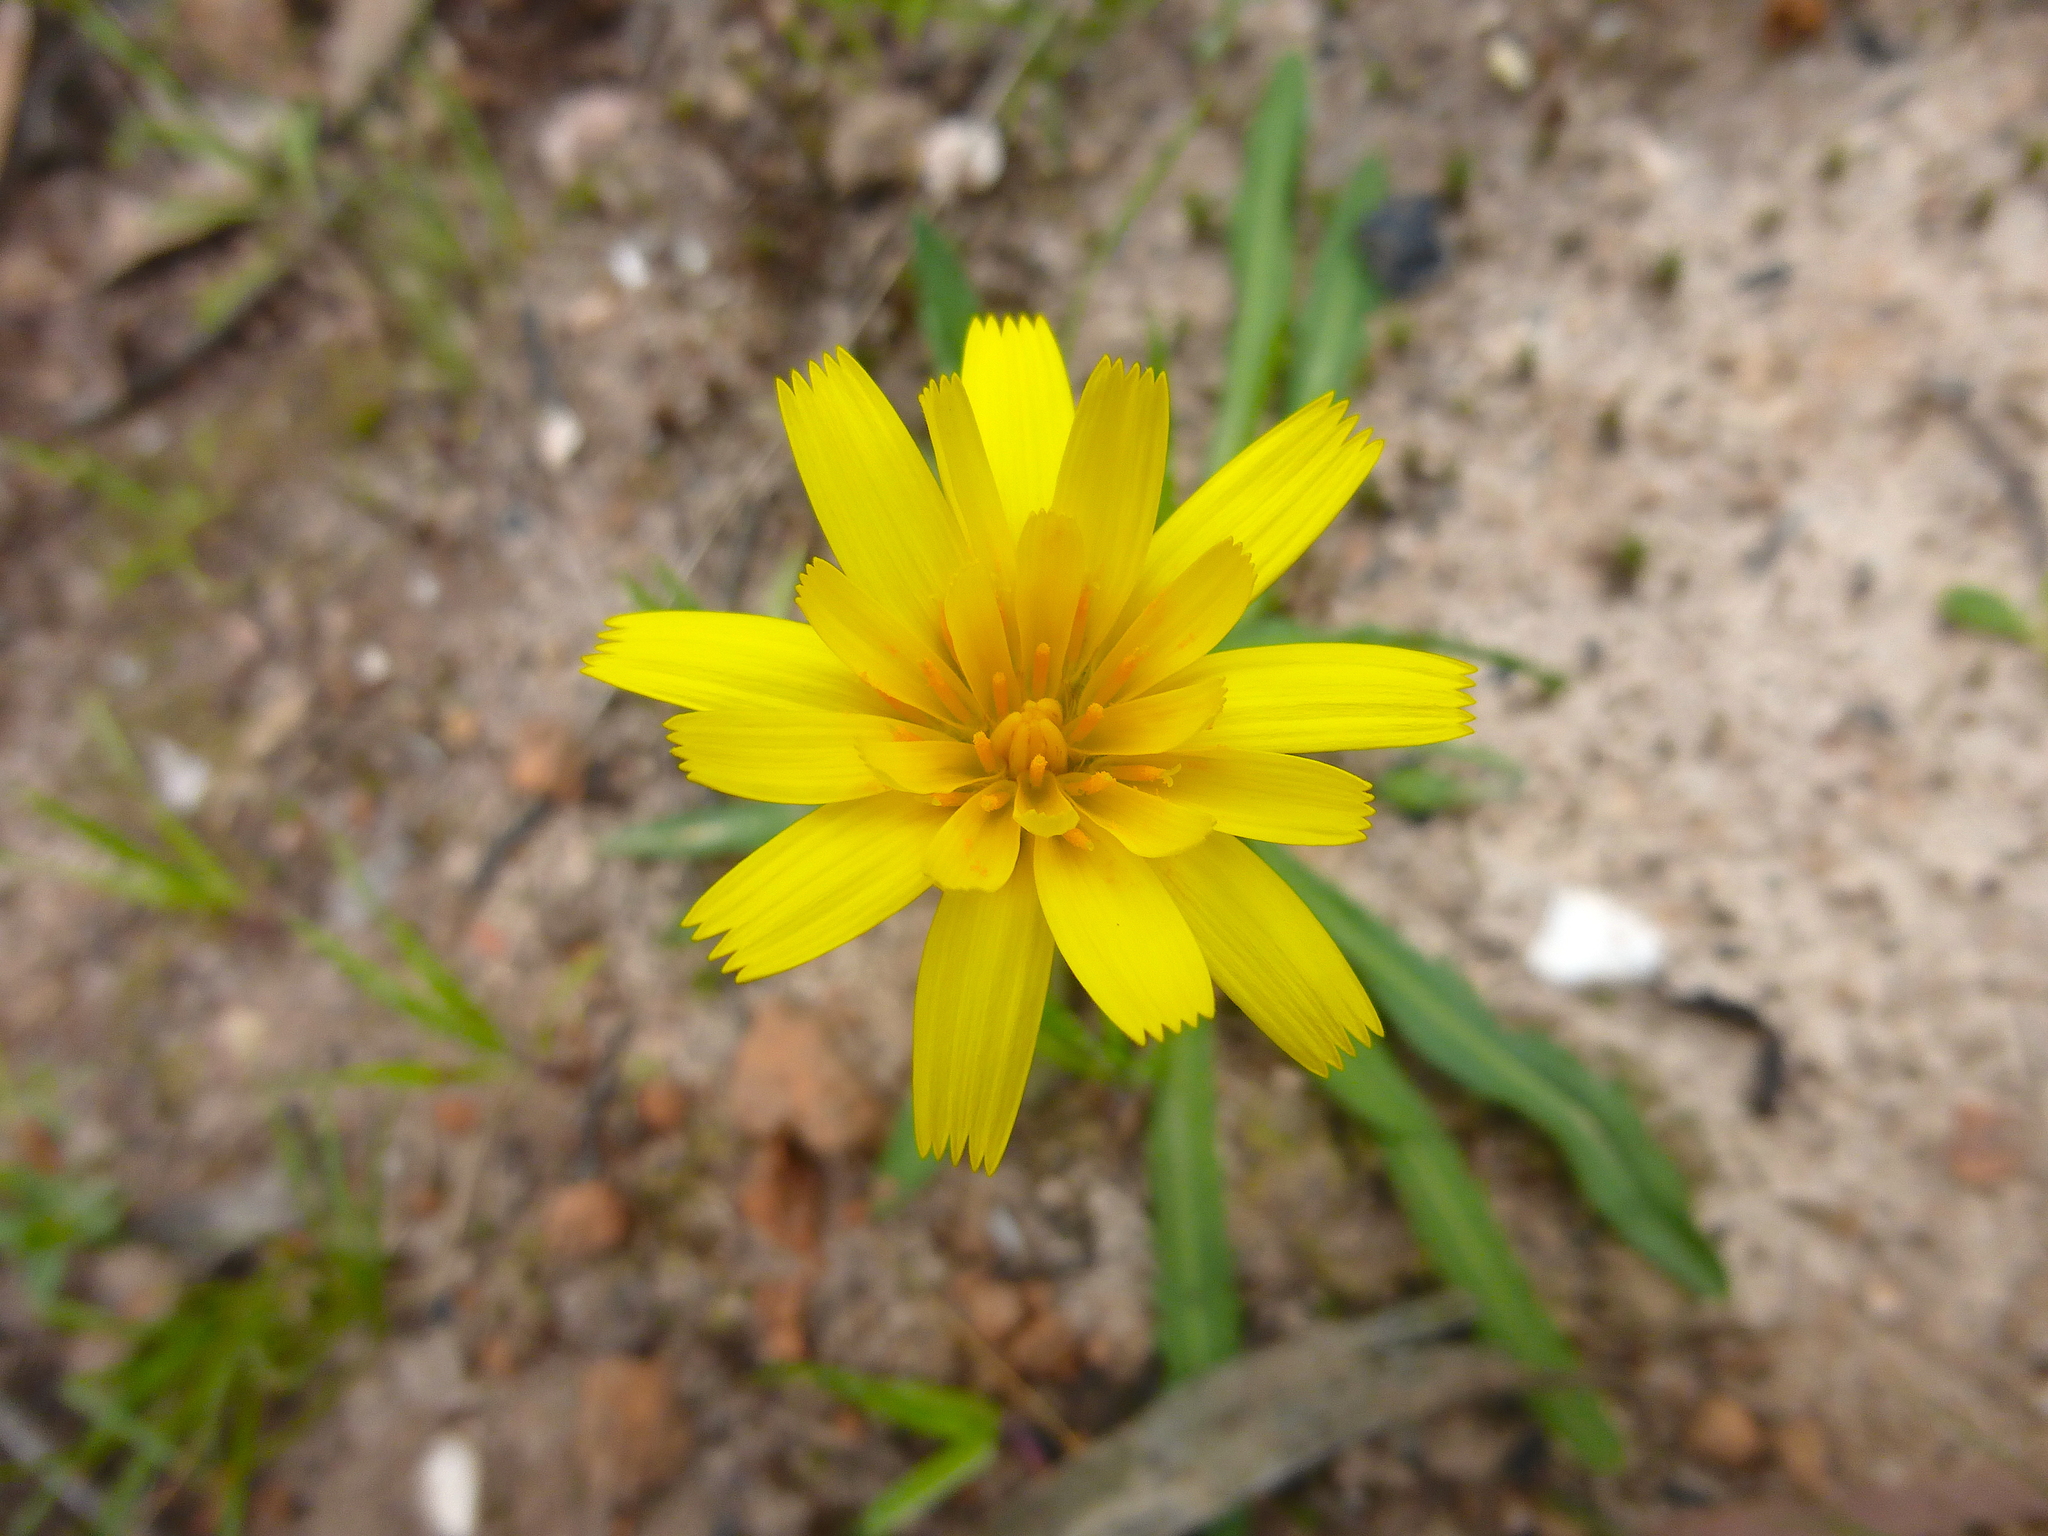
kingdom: Plantae
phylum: Tracheophyta
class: Magnoliopsida
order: Asterales
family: Asteraceae
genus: Microseris
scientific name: Microseris lanceolata
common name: Yam daisy
